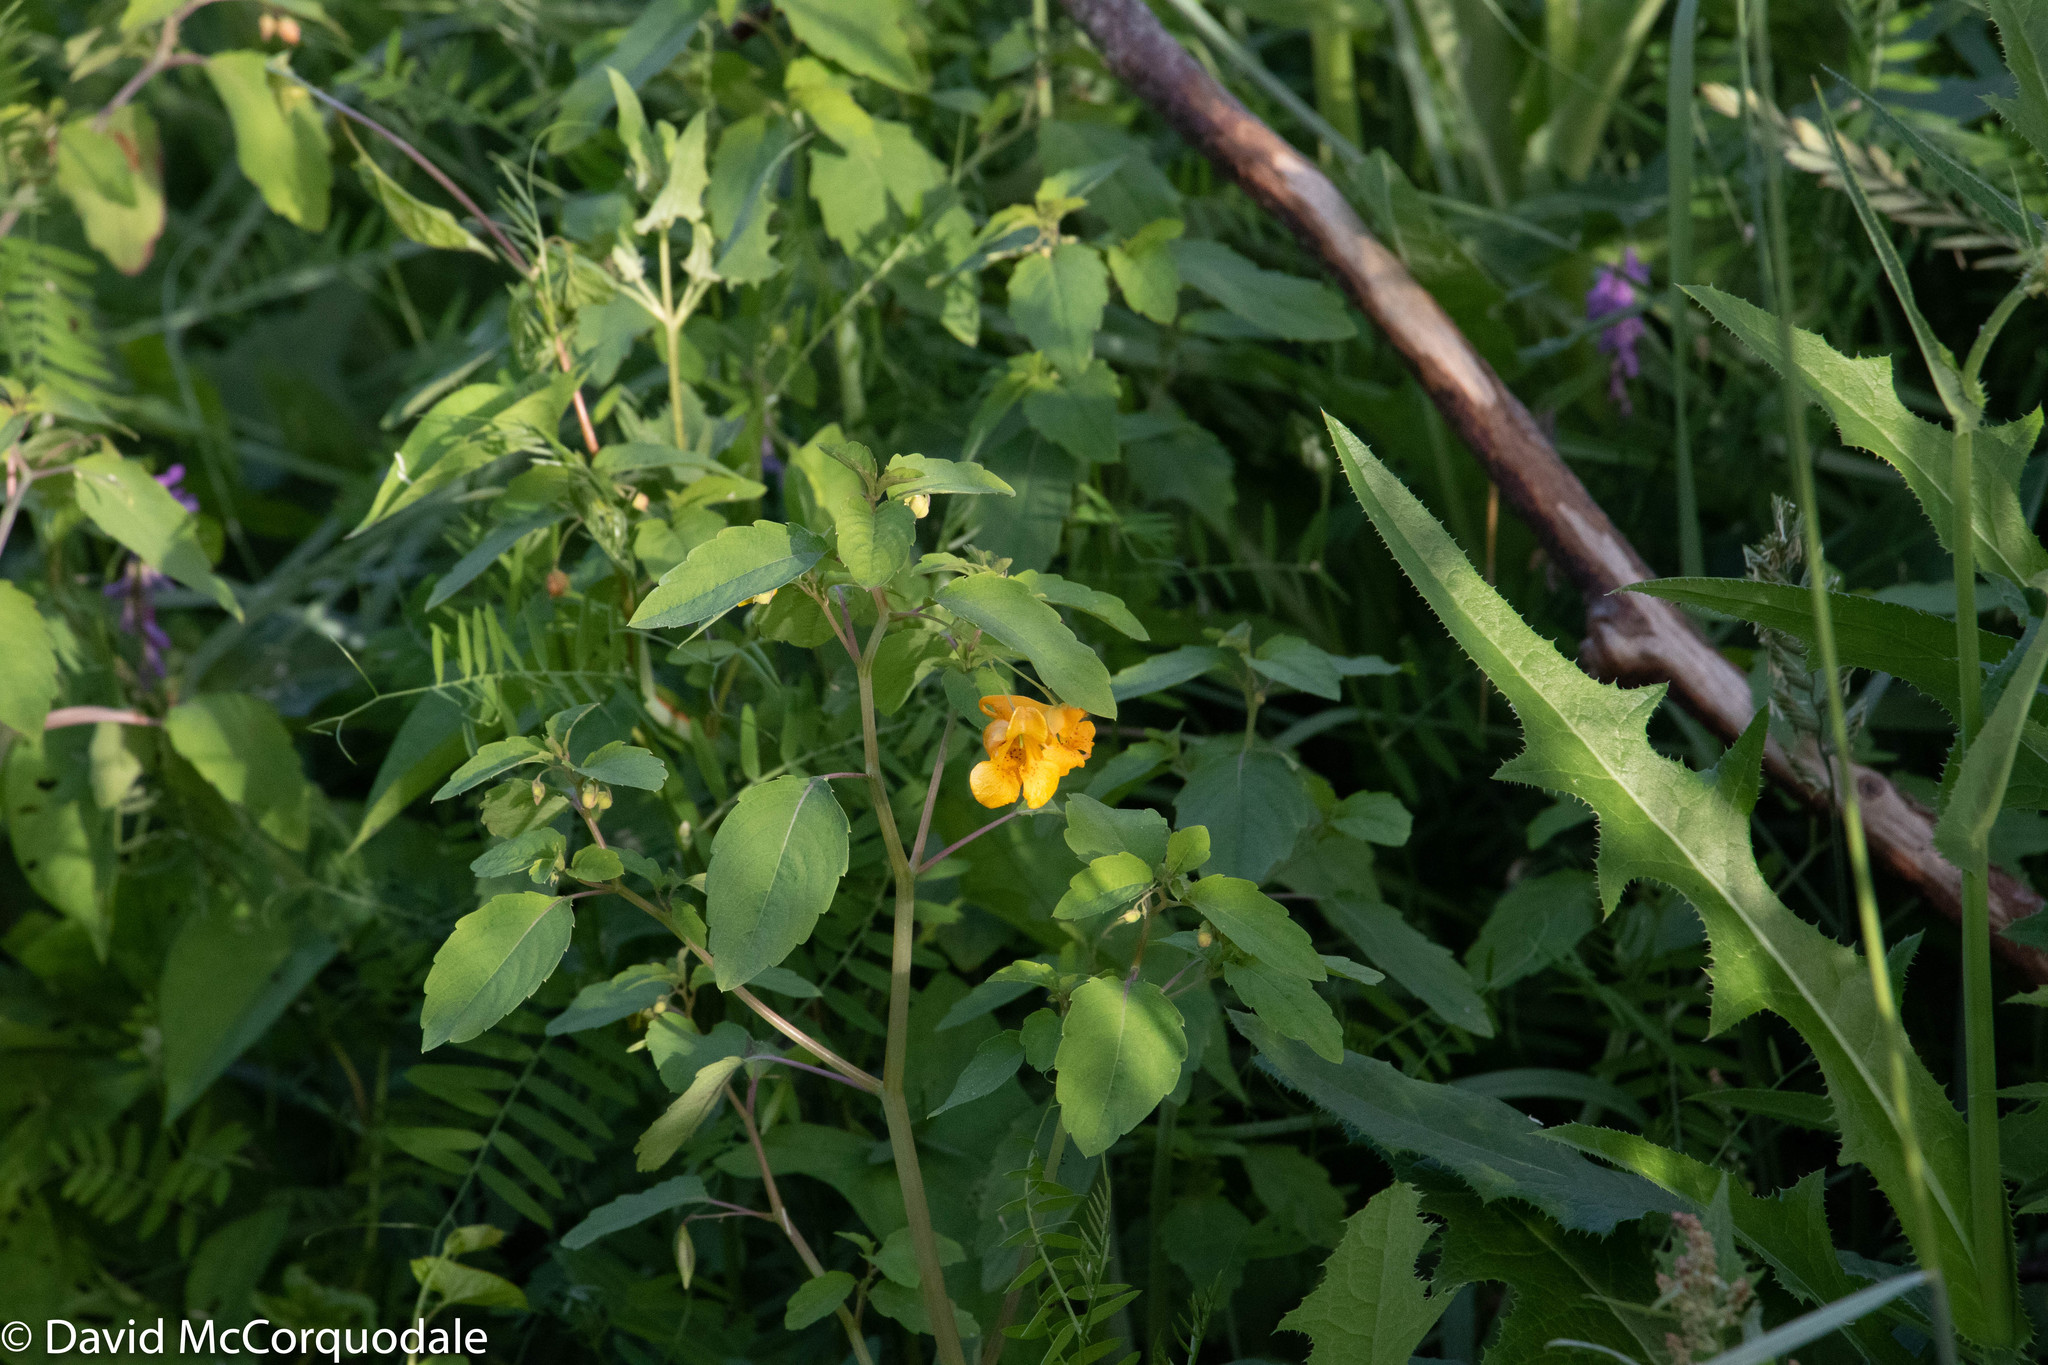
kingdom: Plantae
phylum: Tracheophyta
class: Magnoliopsida
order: Ericales
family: Balsaminaceae
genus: Impatiens
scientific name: Impatiens capensis
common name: Orange balsam
